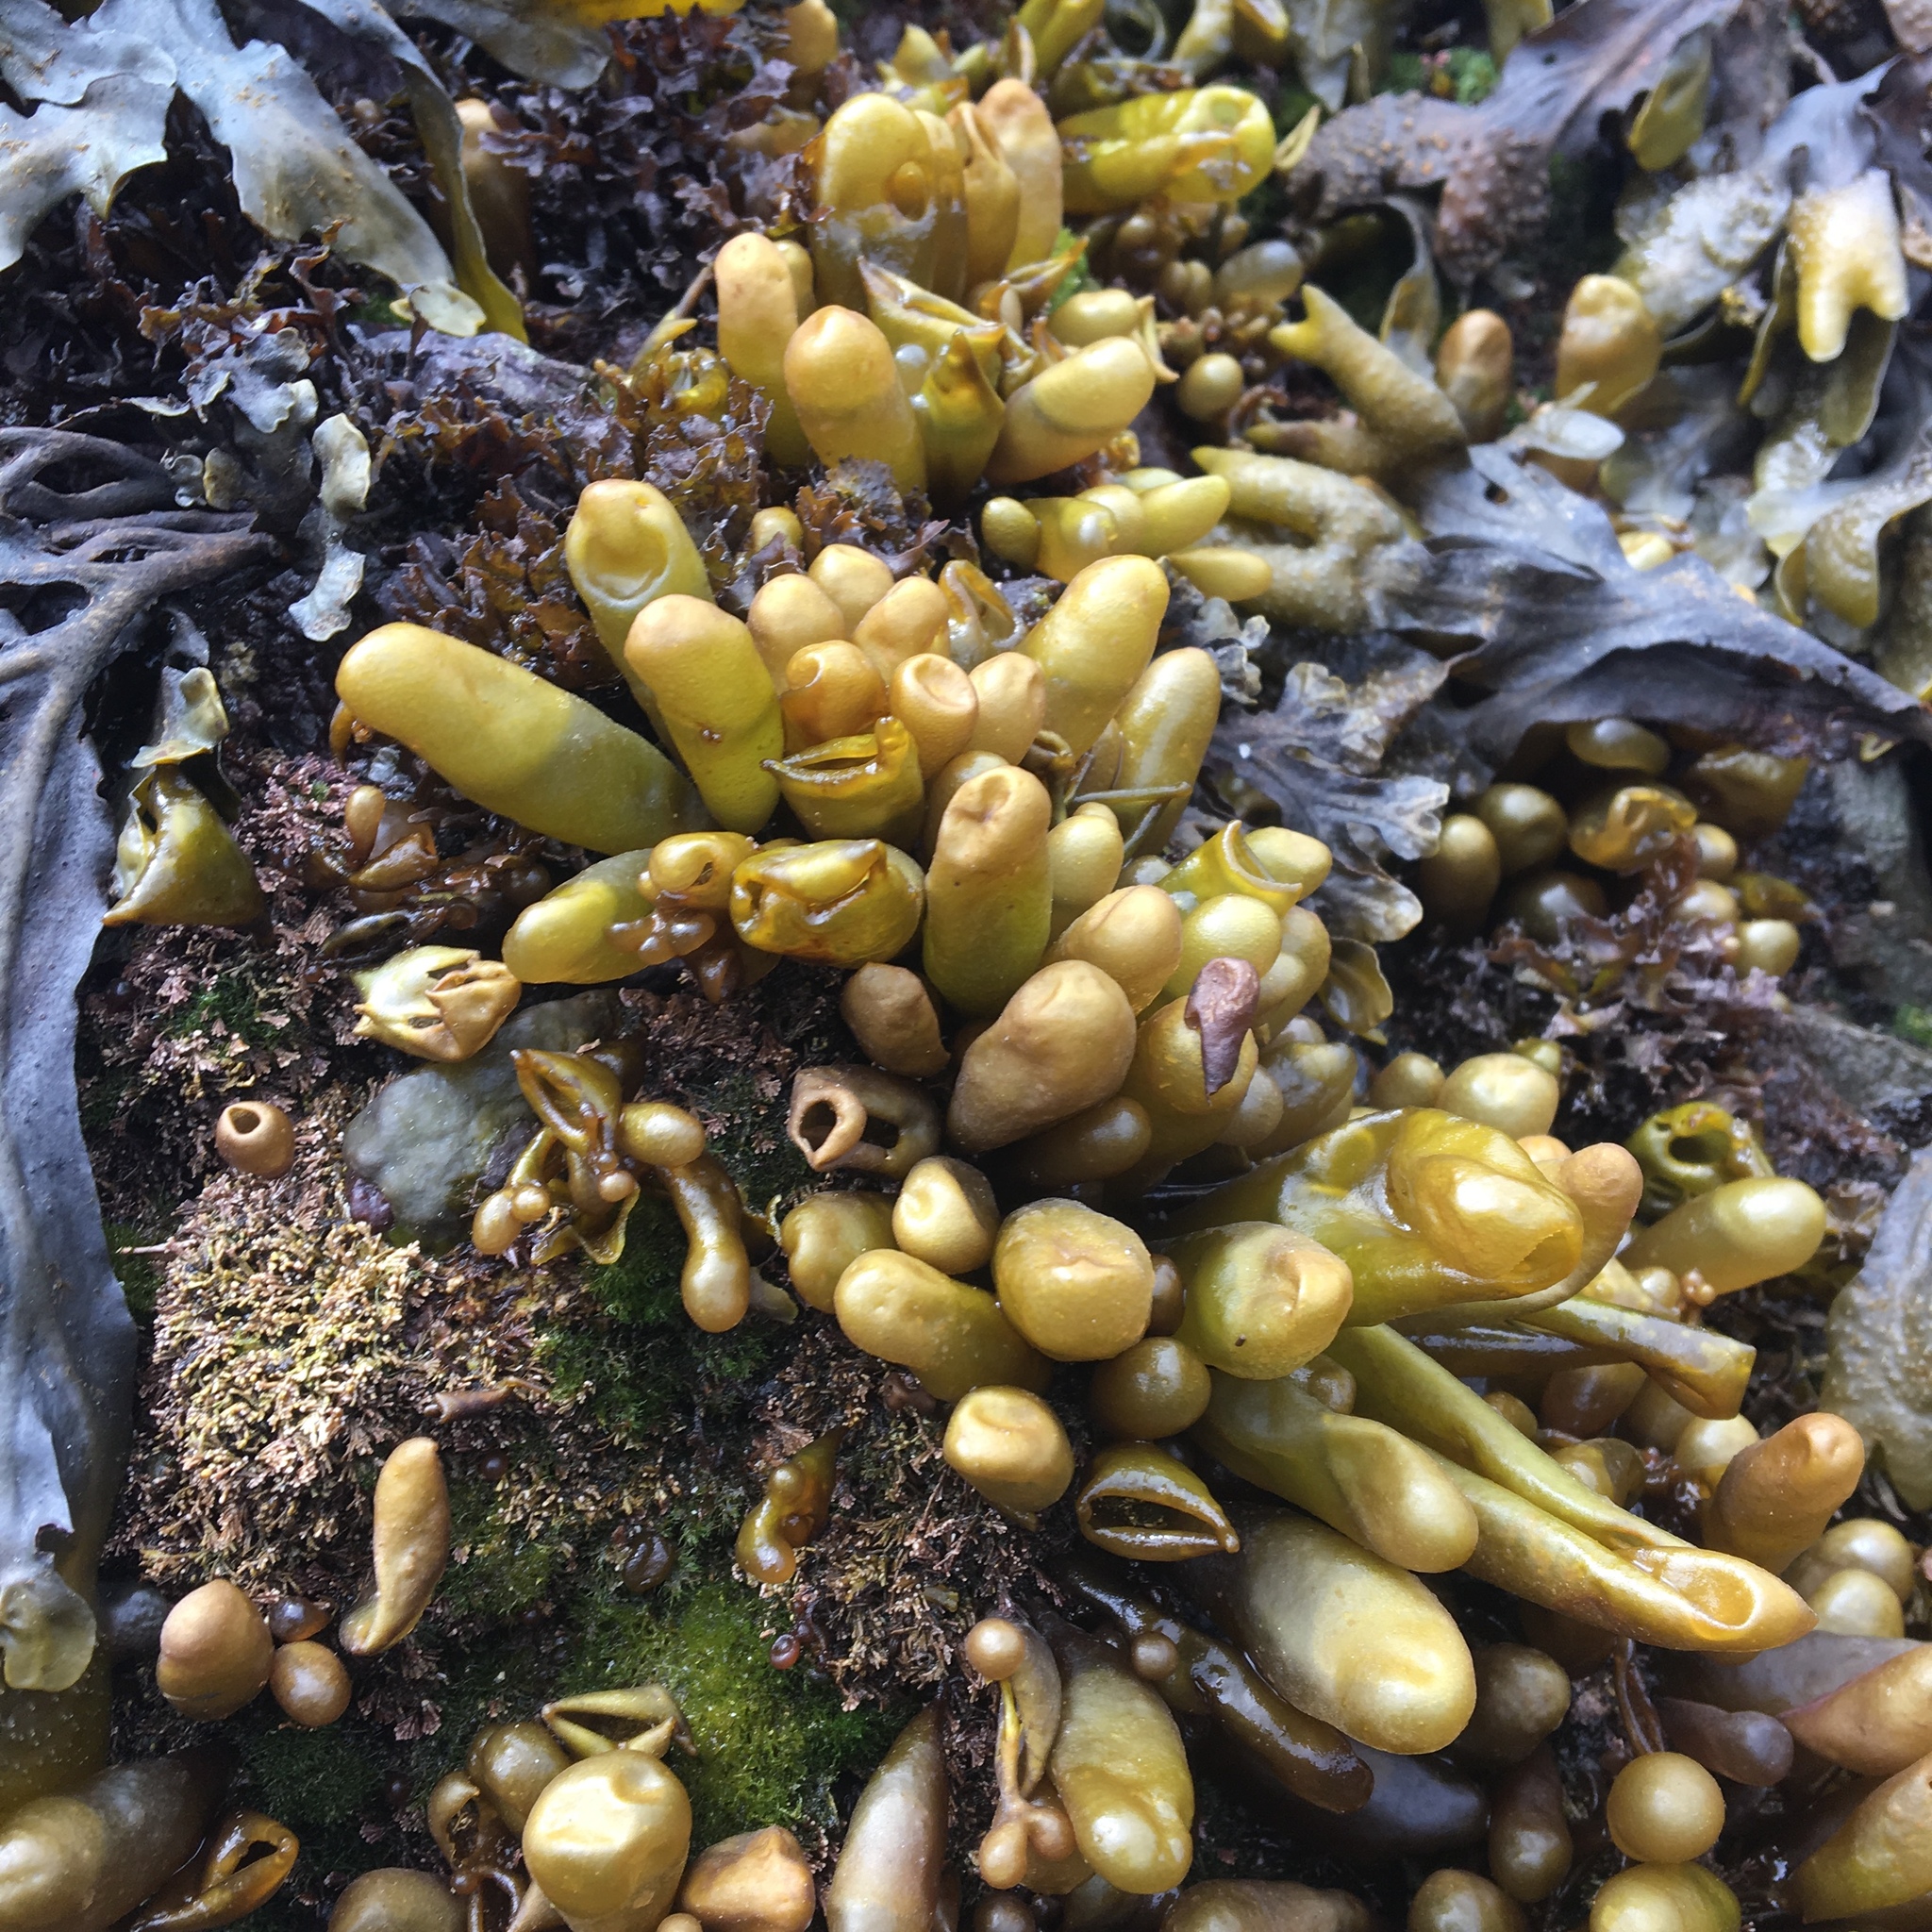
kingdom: Plantae
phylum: Rhodophyta
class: Florideophyceae
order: Palmariales
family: Palmariaceae
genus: Halosaccion
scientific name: Halosaccion glandiforme
